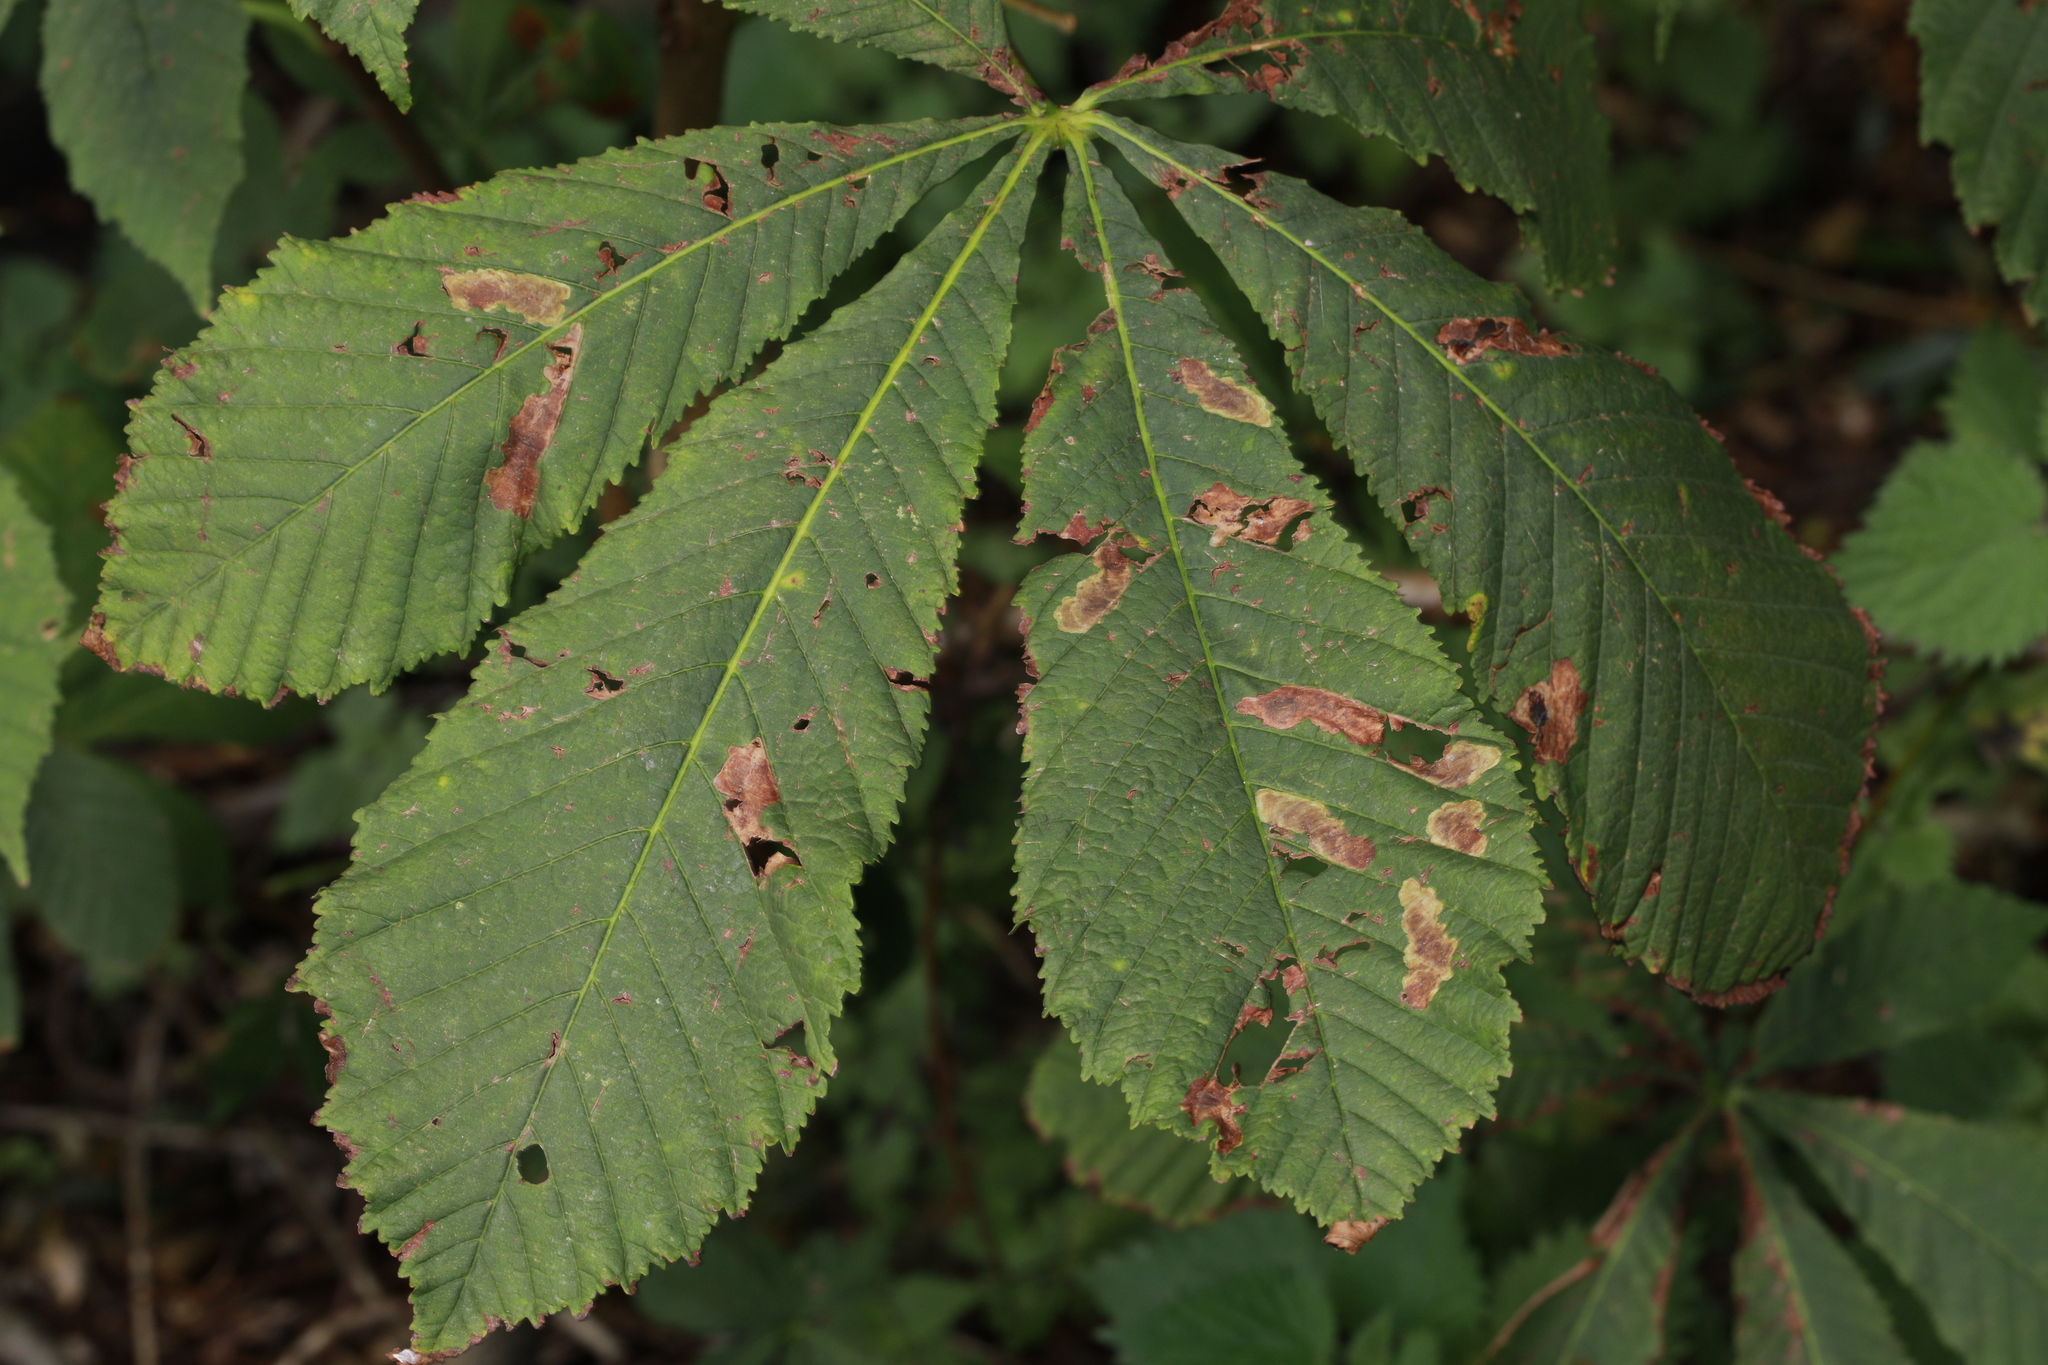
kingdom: Plantae
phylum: Tracheophyta
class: Magnoliopsida
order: Sapindales
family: Sapindaceae
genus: Aesculus
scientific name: Aesculus hippocastanum
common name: Horse-chestnut
